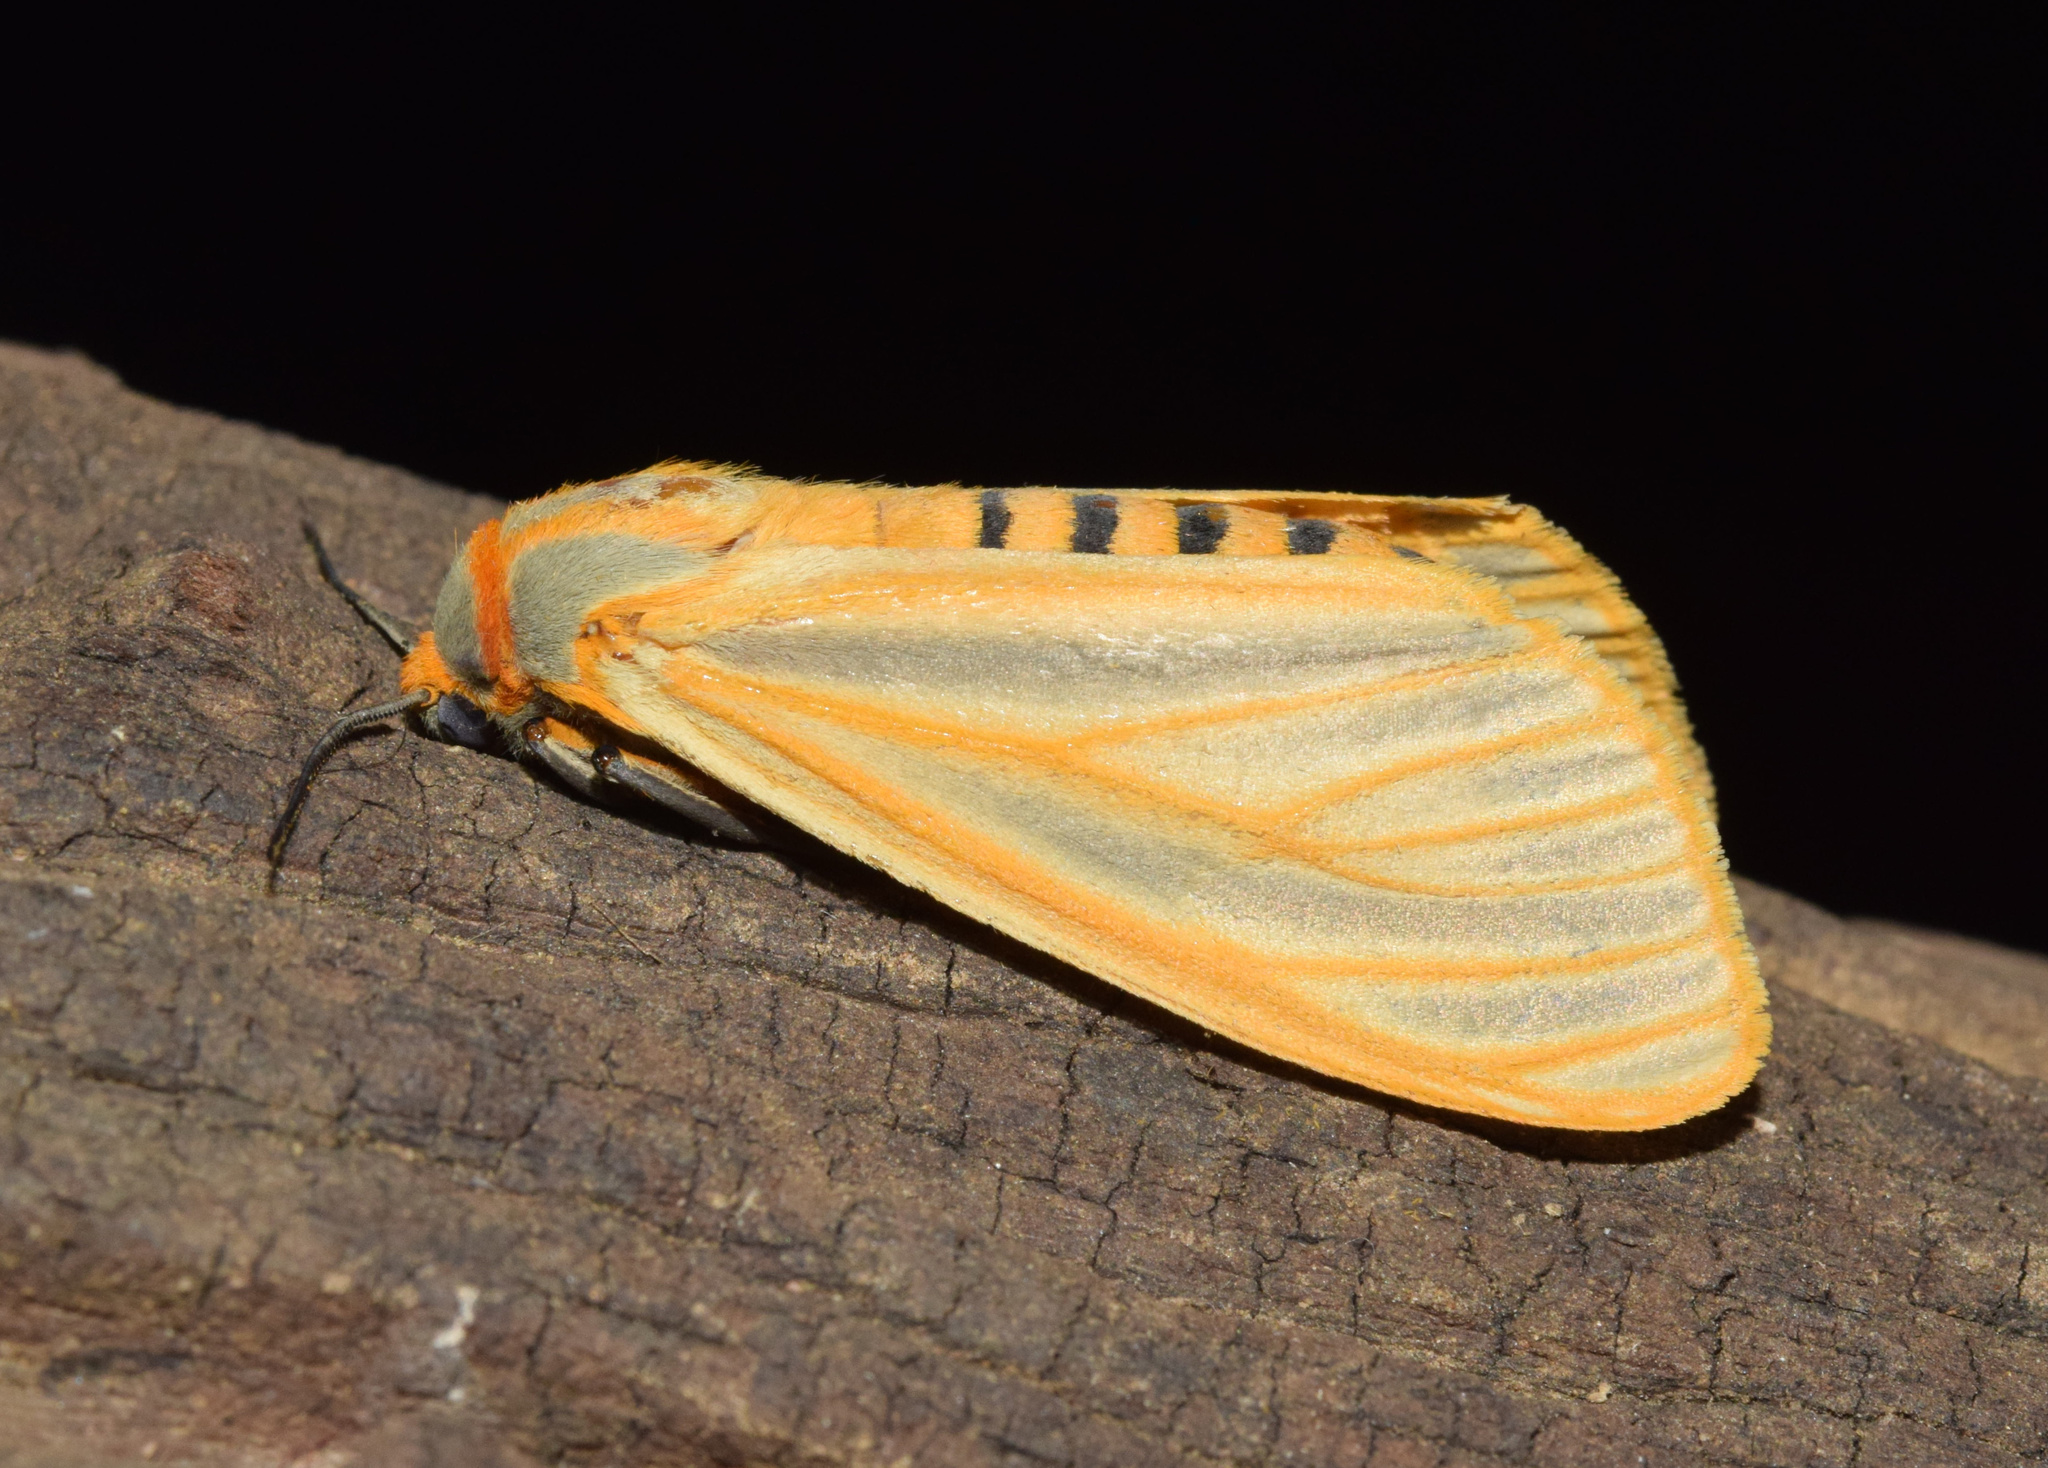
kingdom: Animalia
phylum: Arthropoda
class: Insecta
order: Lepidoptera
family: Erebidae
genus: Afromurzinia
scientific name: Afromurzinia lutescens
